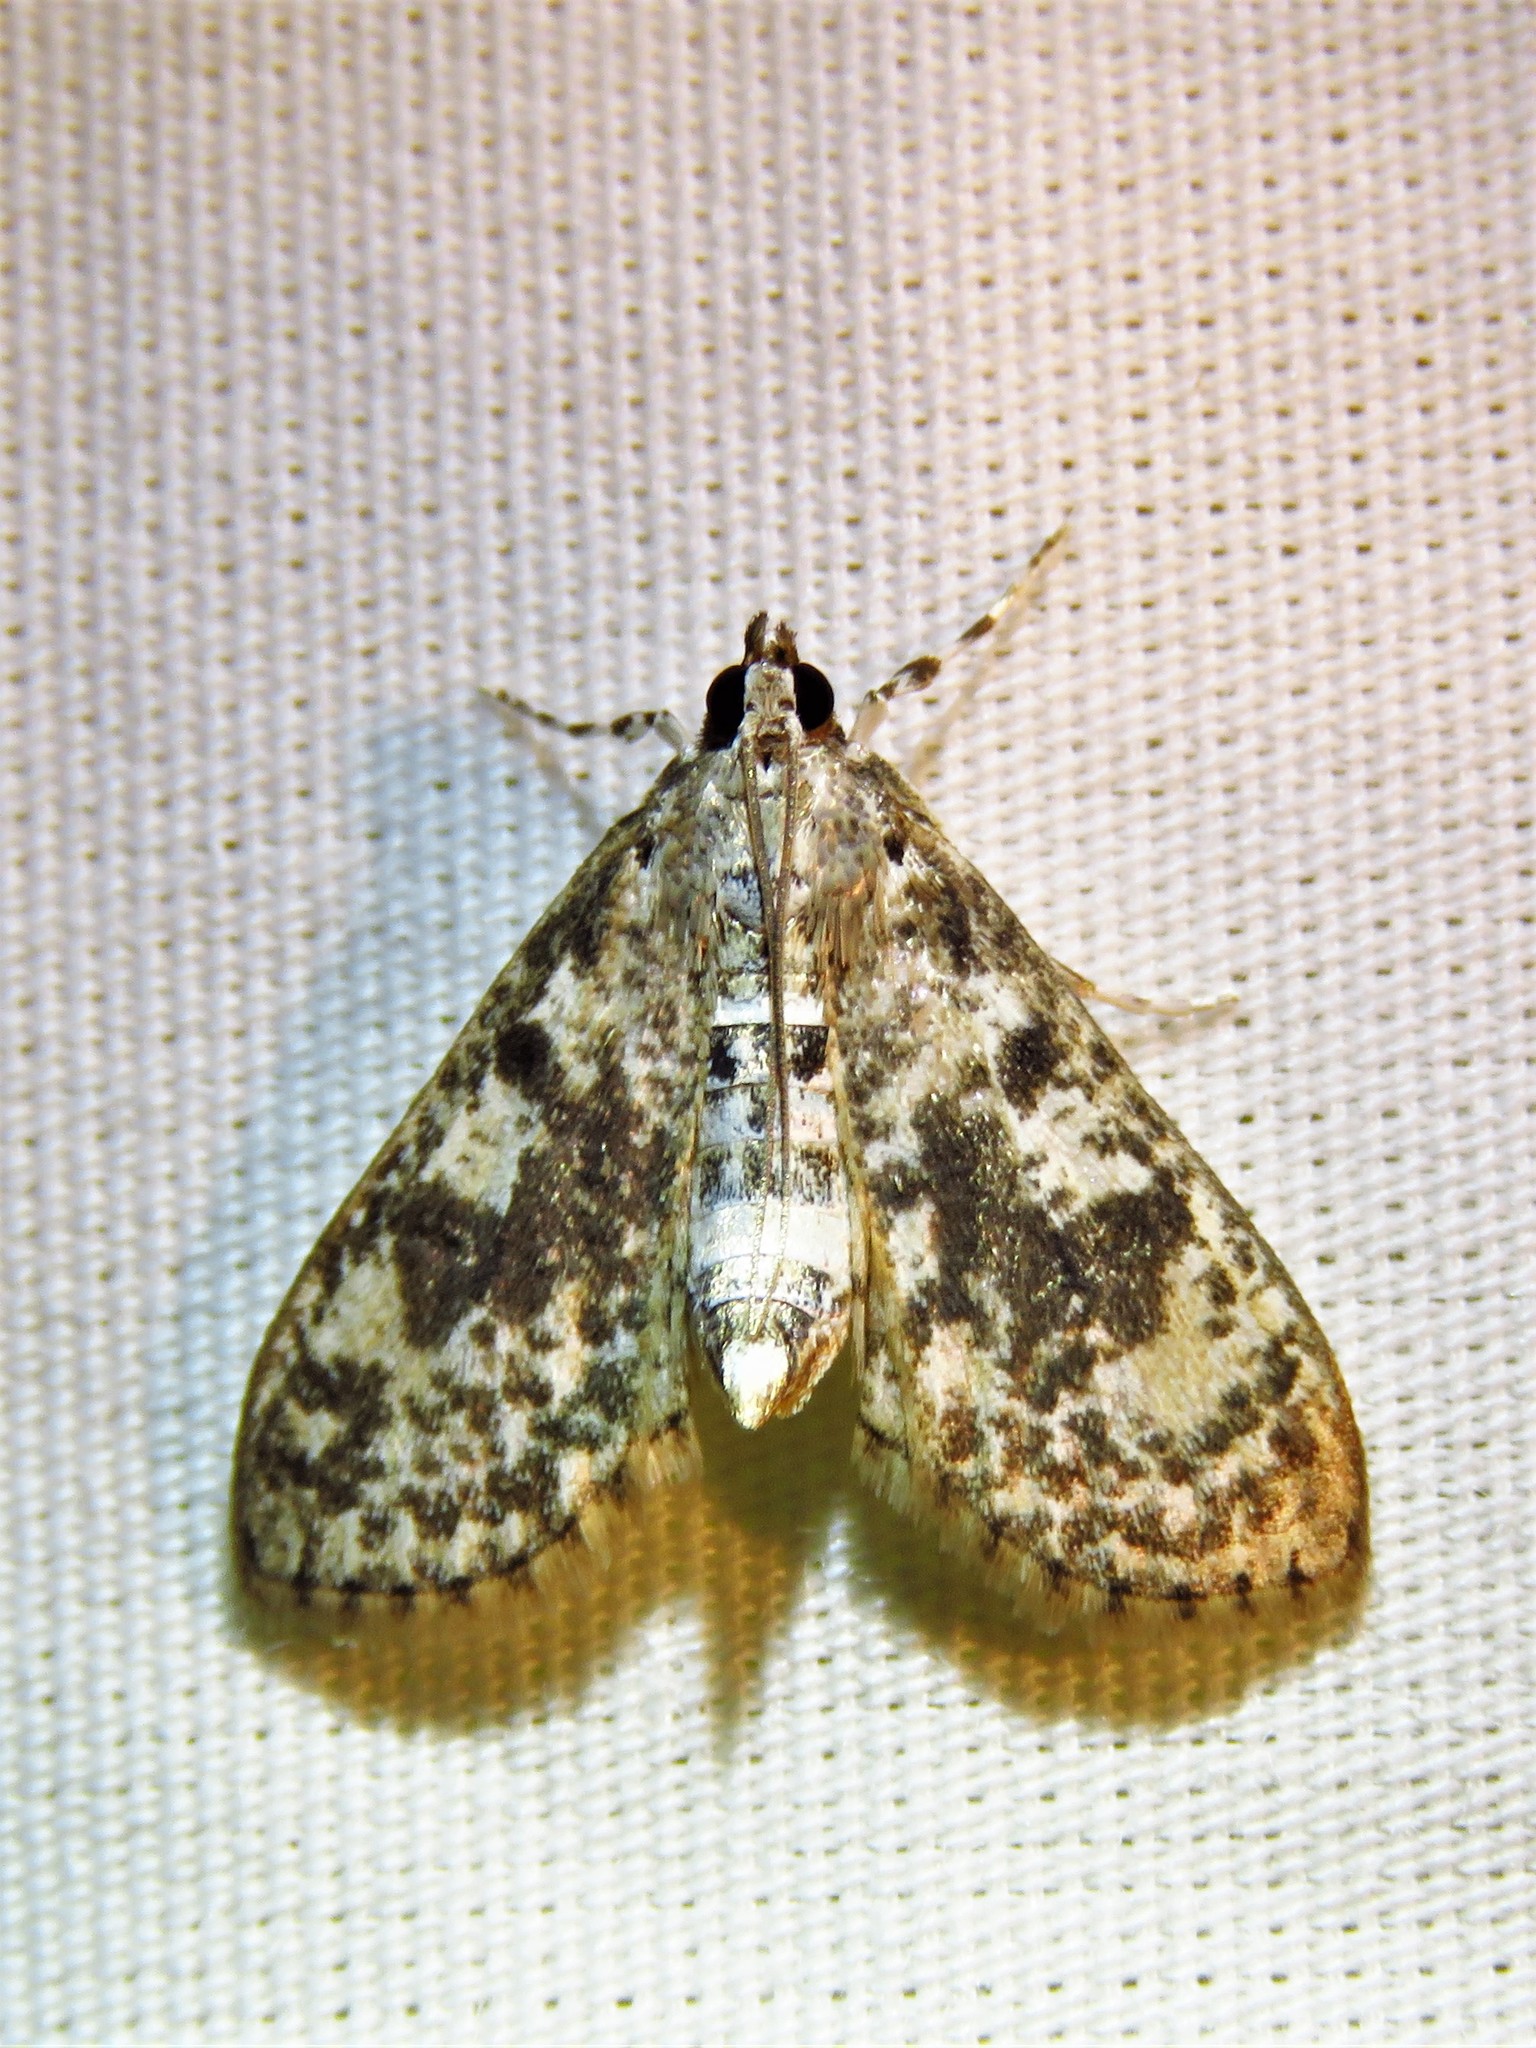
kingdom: Animalia
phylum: Arthropoda
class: Insecta
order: Lepidoptera
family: Crambidae
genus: Palpita
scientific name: Palpita magniferalis
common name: Splendid palpita moth
